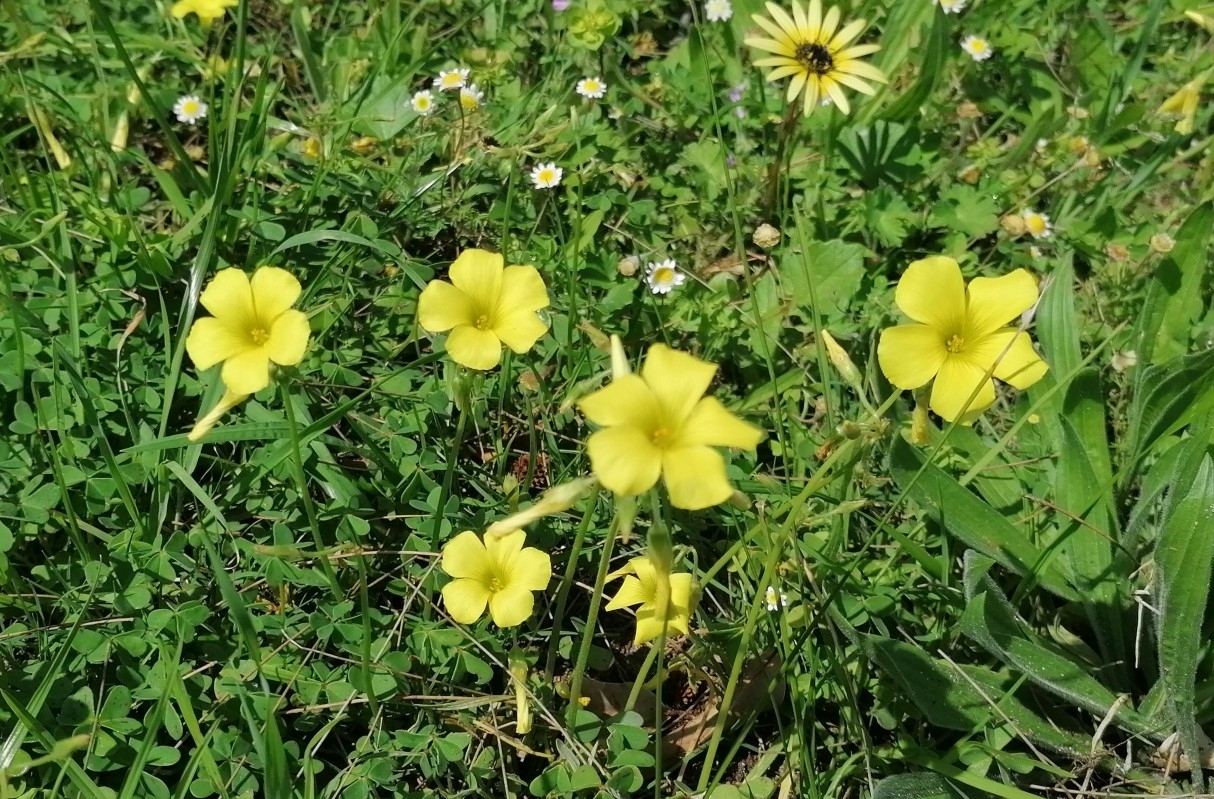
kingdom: Plantae
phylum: Tracheophyta
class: Magnoliopsida
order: Oxalidales
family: Oxalidaceae
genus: Oxalis
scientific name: Oxalis pes-caprae
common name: Bermuda-buttercup
